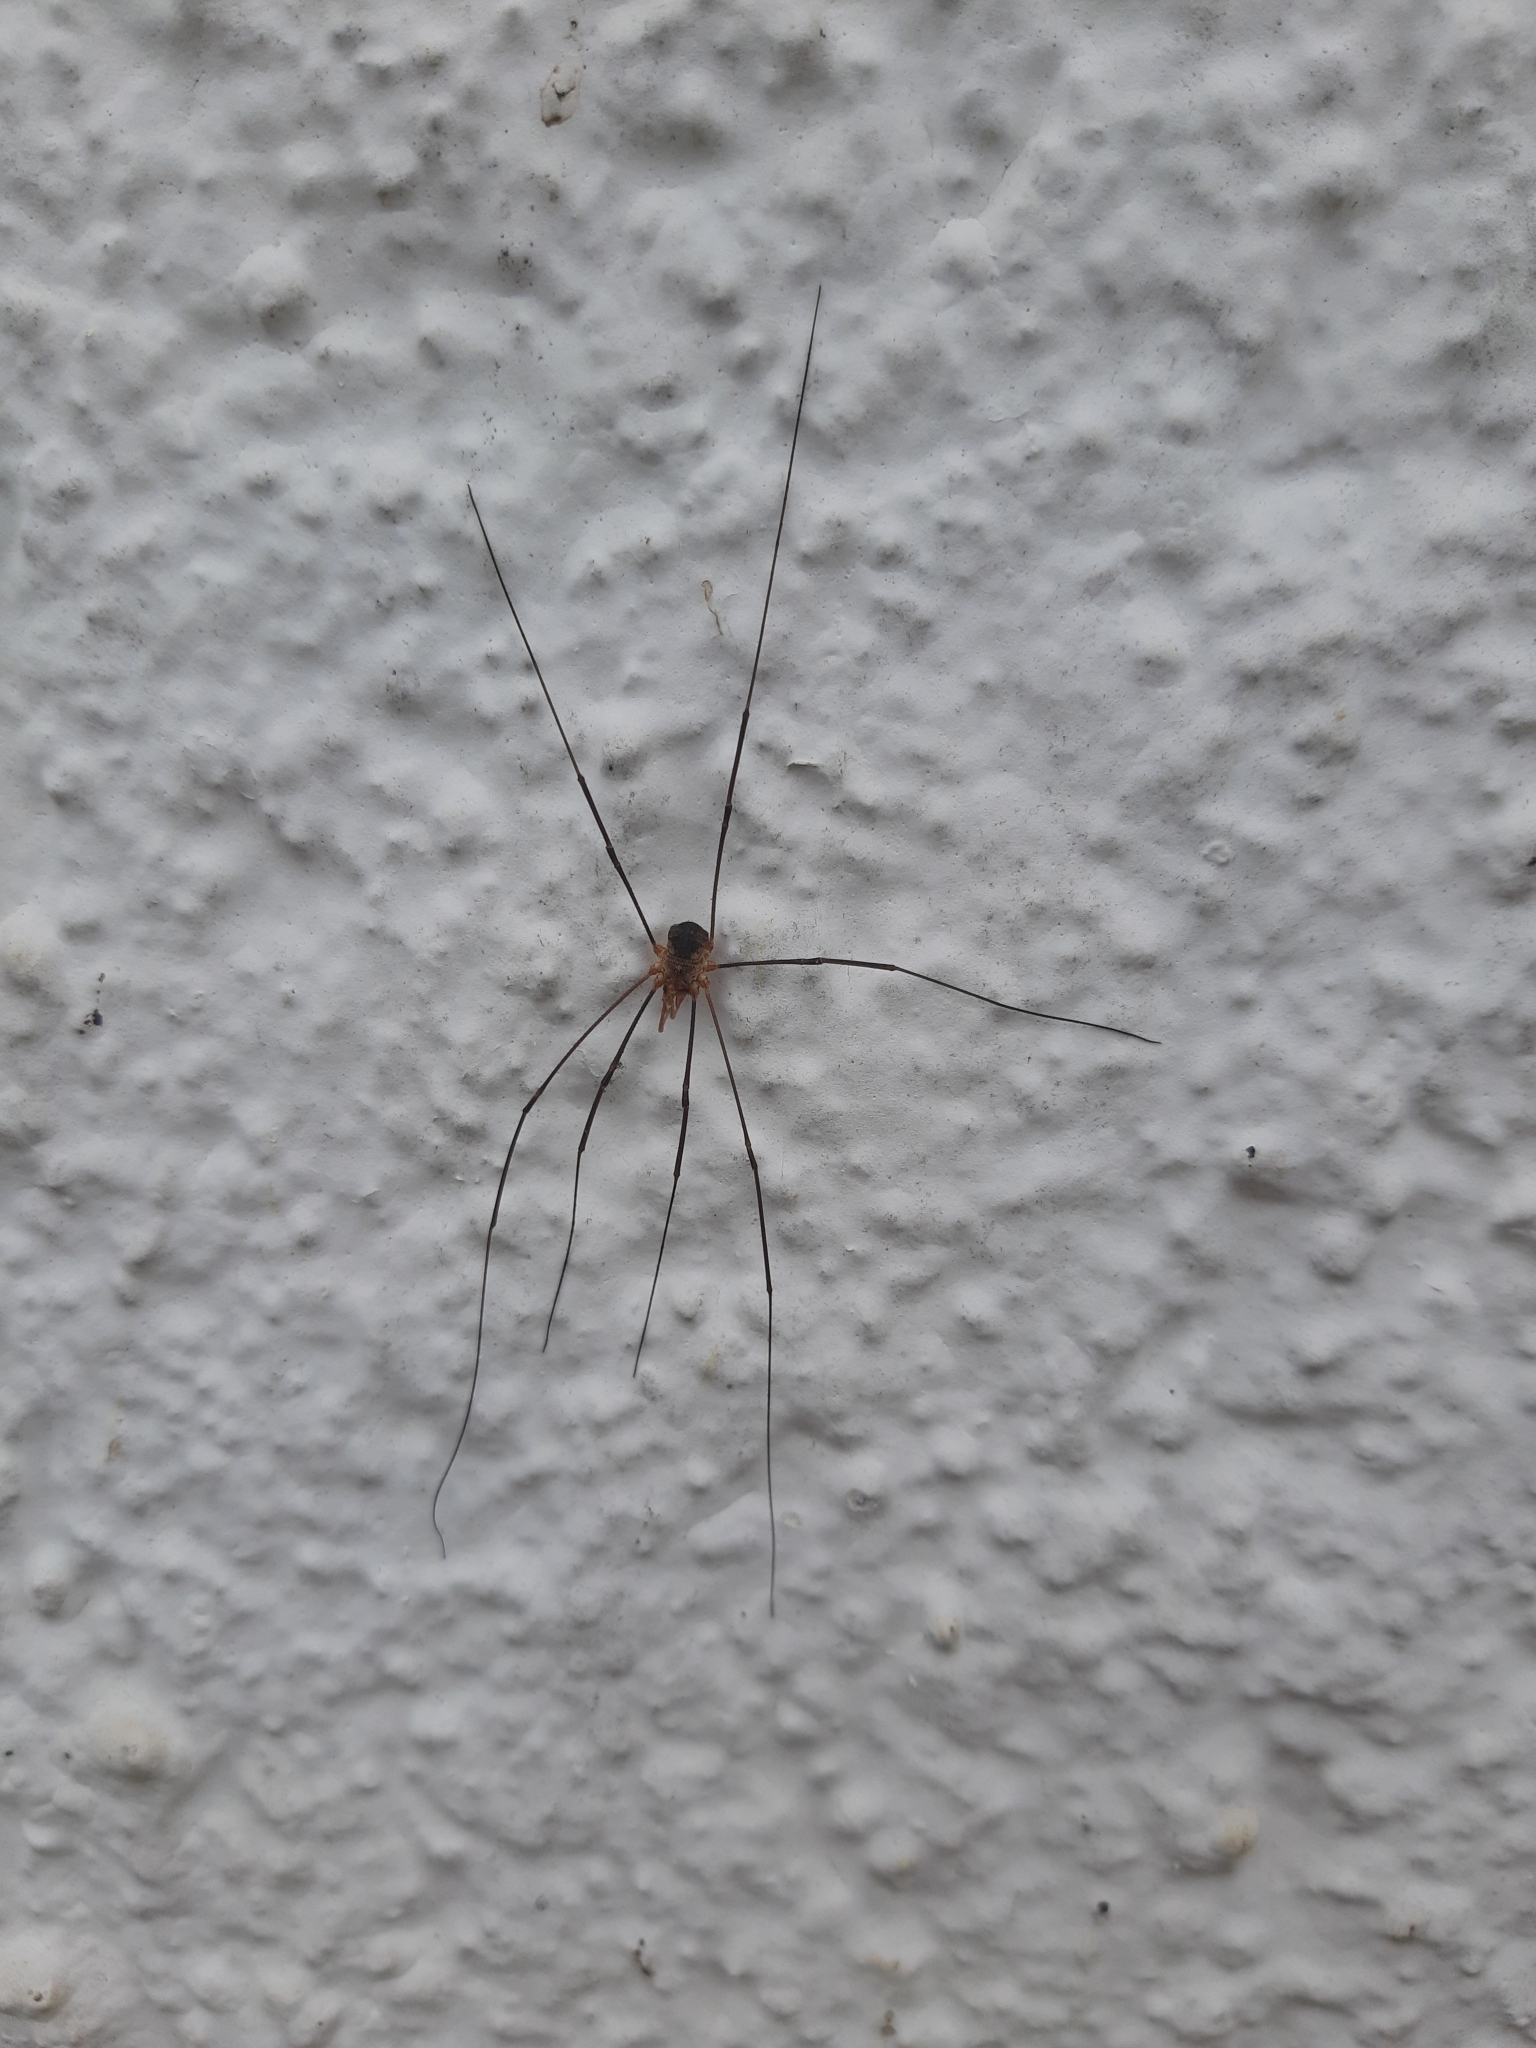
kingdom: Animalia
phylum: Arthropoda
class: Arachnida
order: Opiliones
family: Phalangiidae
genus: Phalangium
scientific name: Phalangium opilio
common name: Daddy longleg
